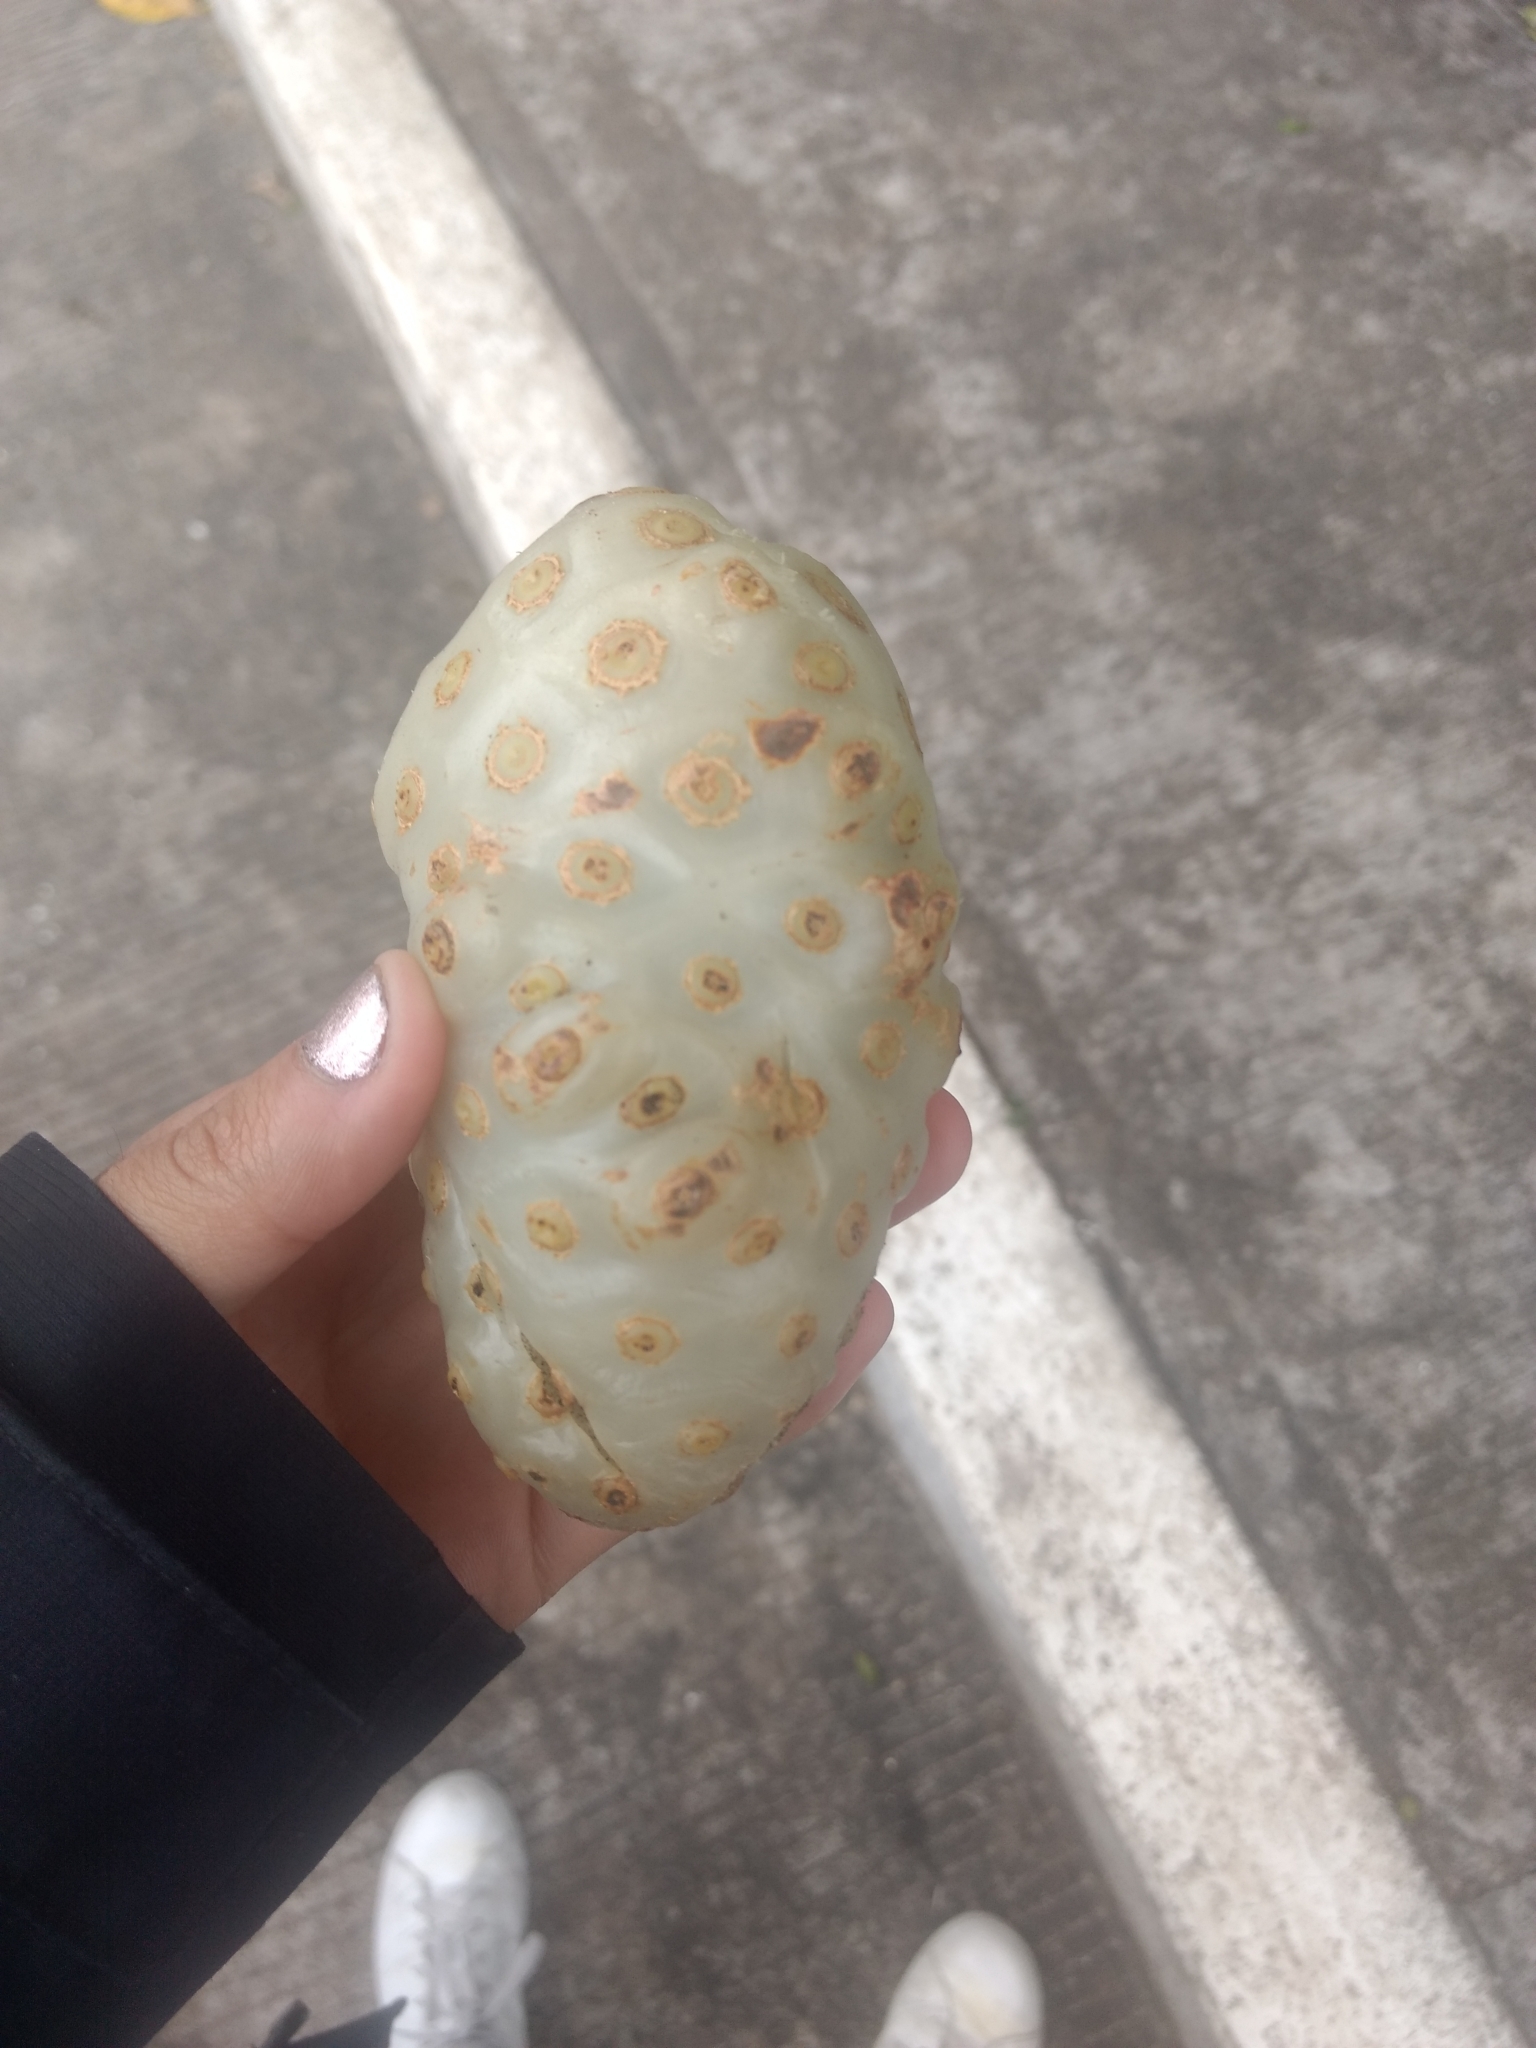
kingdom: Plantae
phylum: Tracheophyta
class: Magnoliopsida
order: Gentianales
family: Rubiaceae
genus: Morinda
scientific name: Morinda citrifolia
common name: Indian-mulberry
